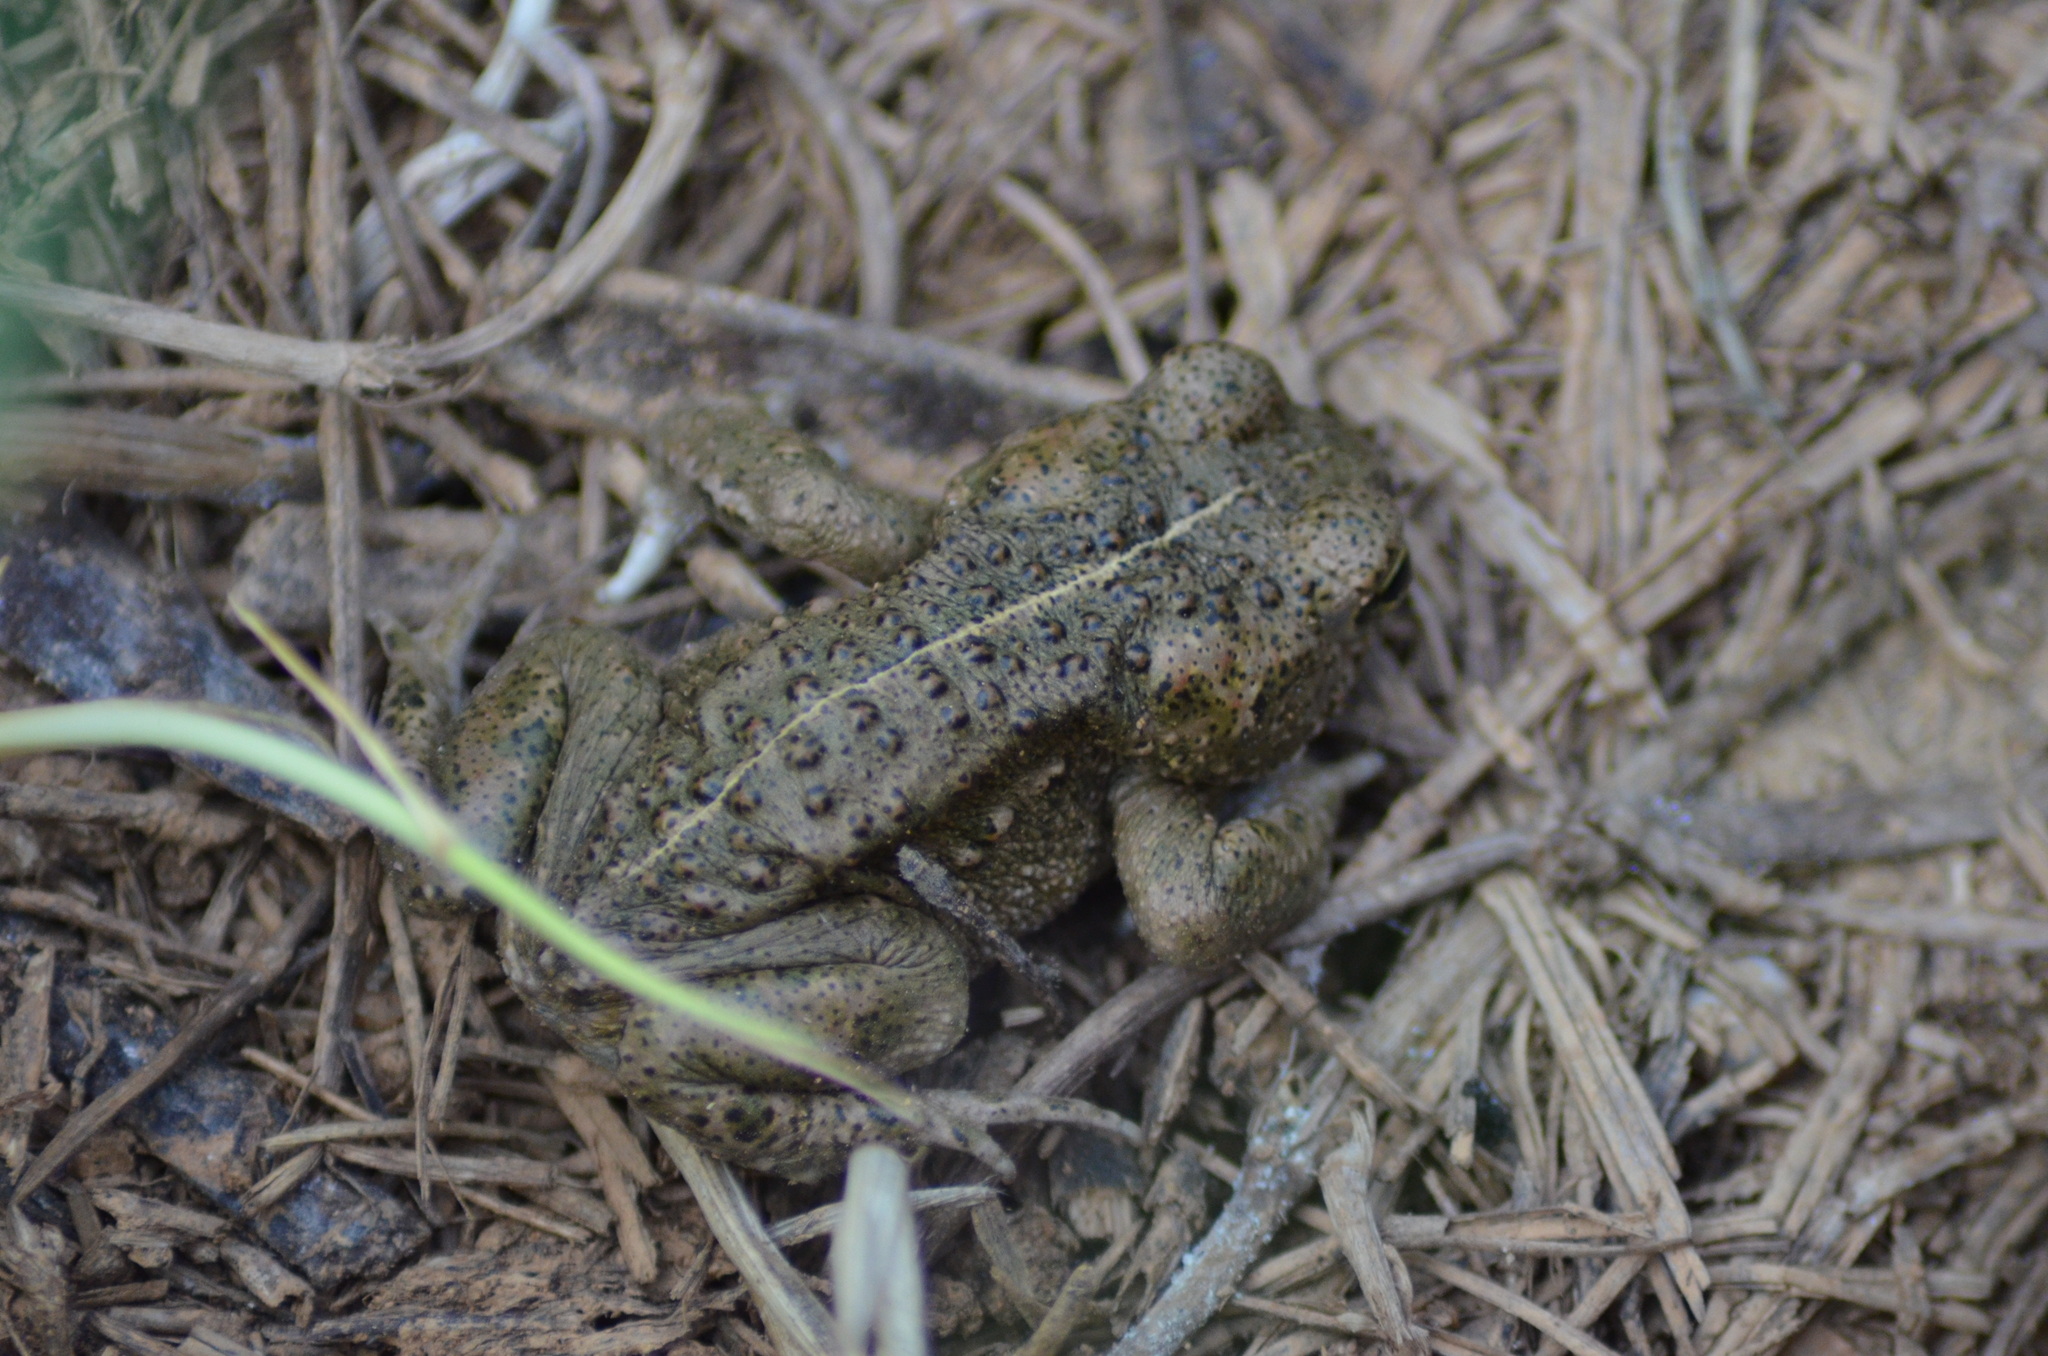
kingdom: Animalia
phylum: Chordata
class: Amphibia
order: Anura
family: Bufonidae
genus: Epidalea
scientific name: Epidalea calamita
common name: Natterjack toad
